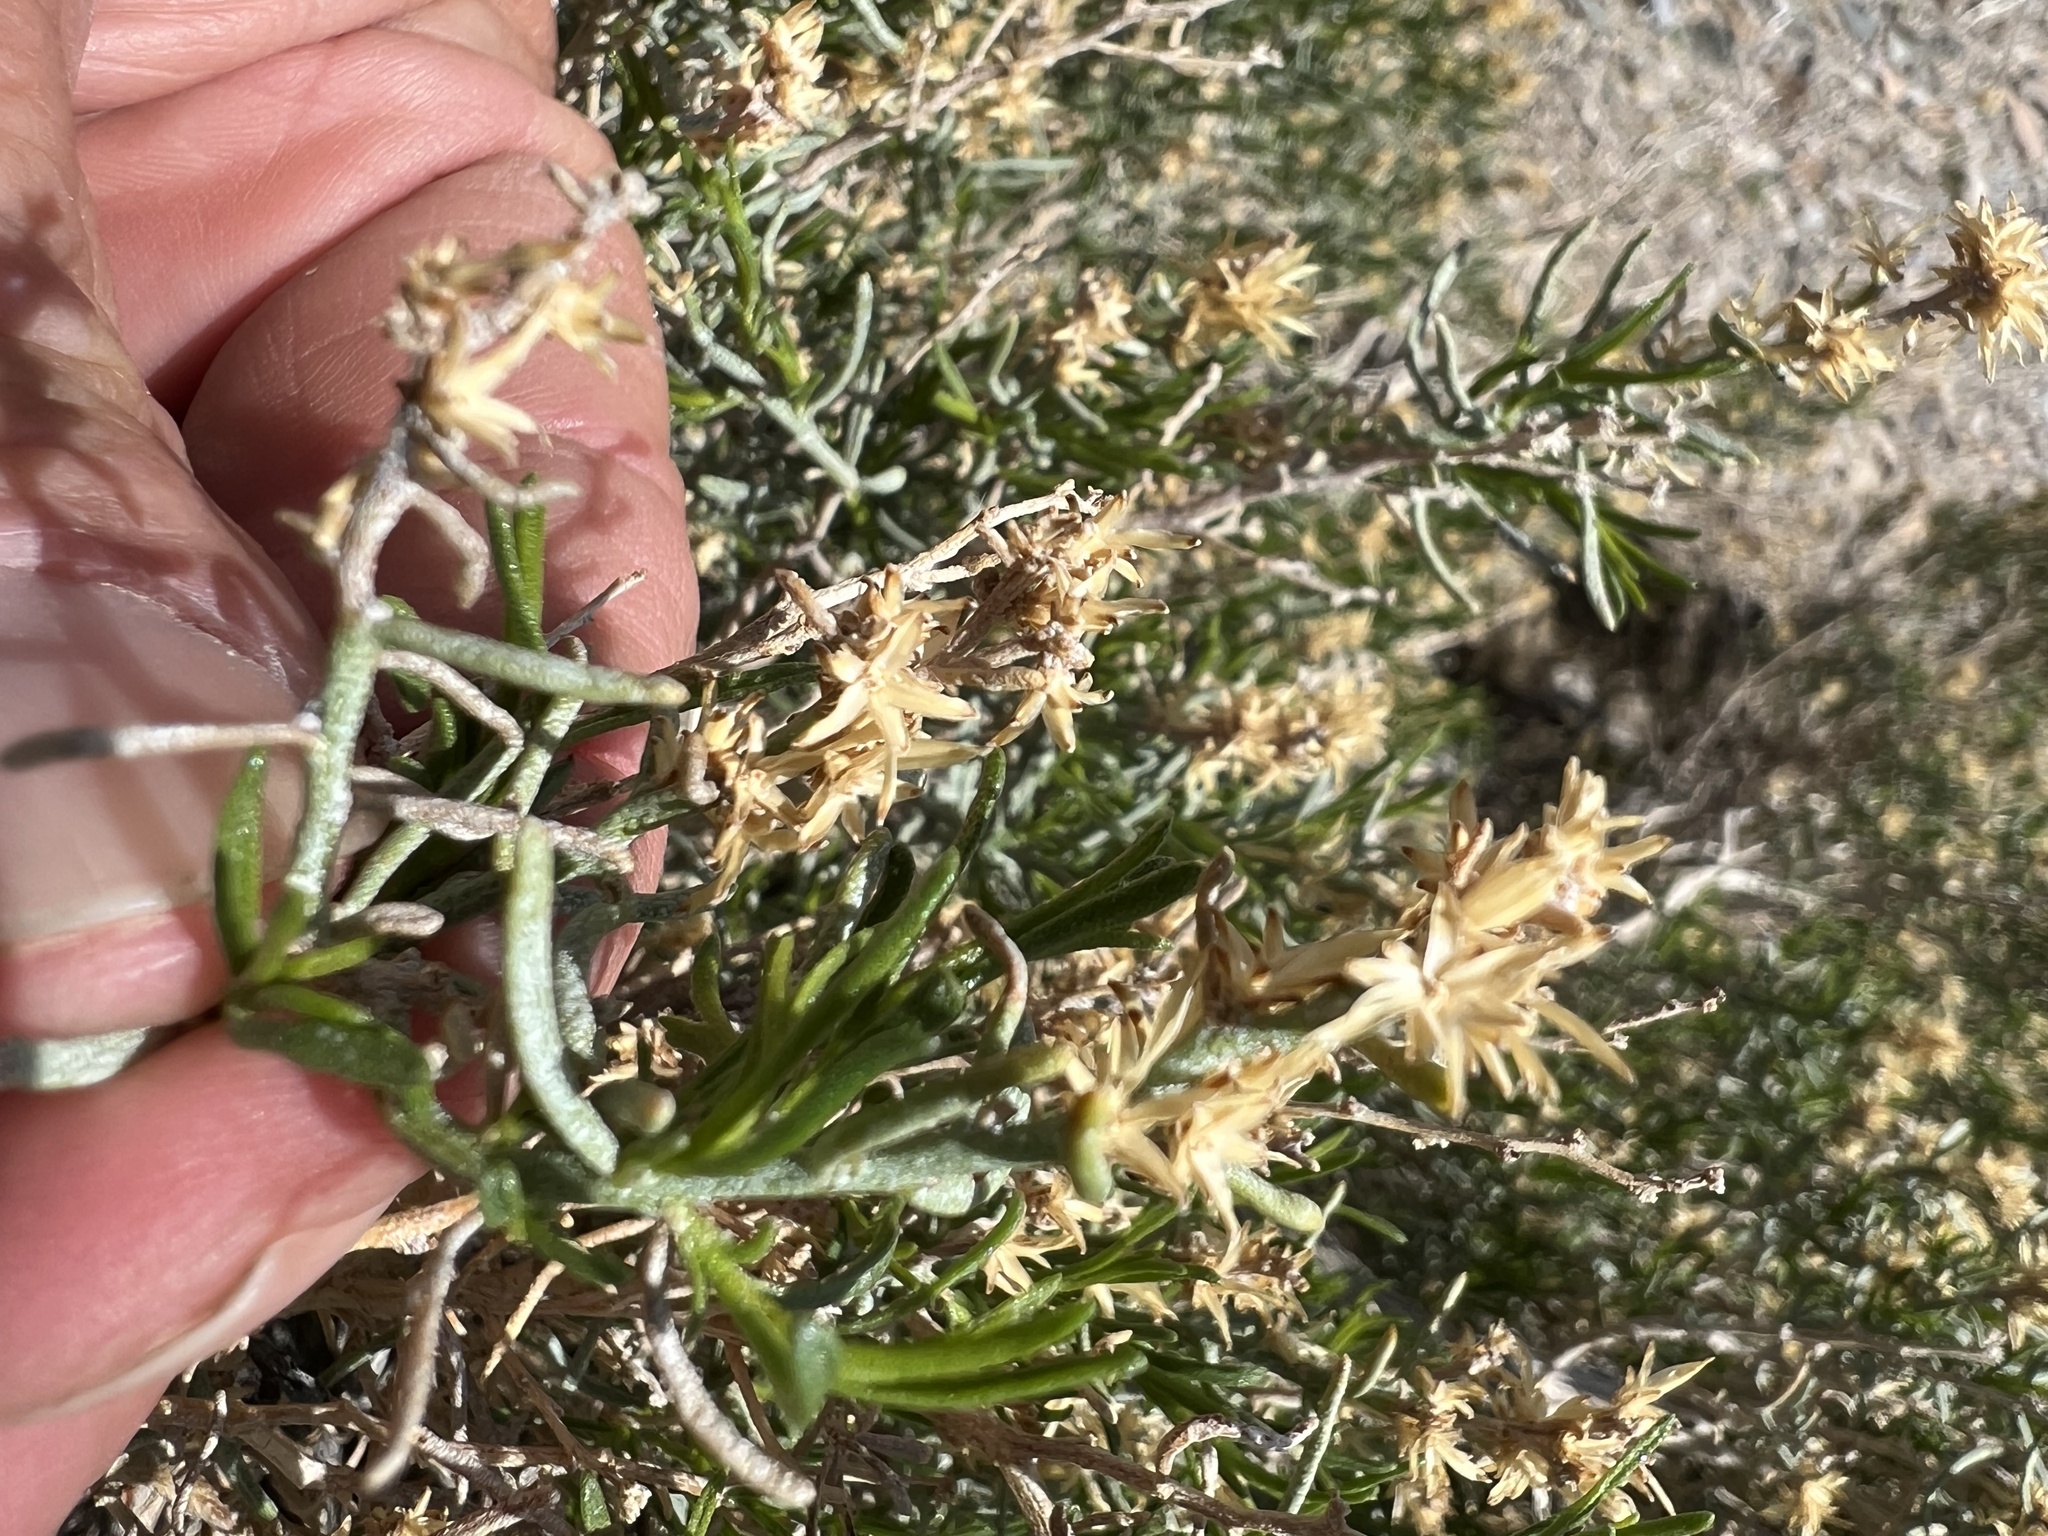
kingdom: Plantae
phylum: Tracheophyta
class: Magnoliopsida
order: Asterales
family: Asteraceae
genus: Ericameria
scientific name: Ericameria teretifolia
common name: Round-leaf rabbitbrush
